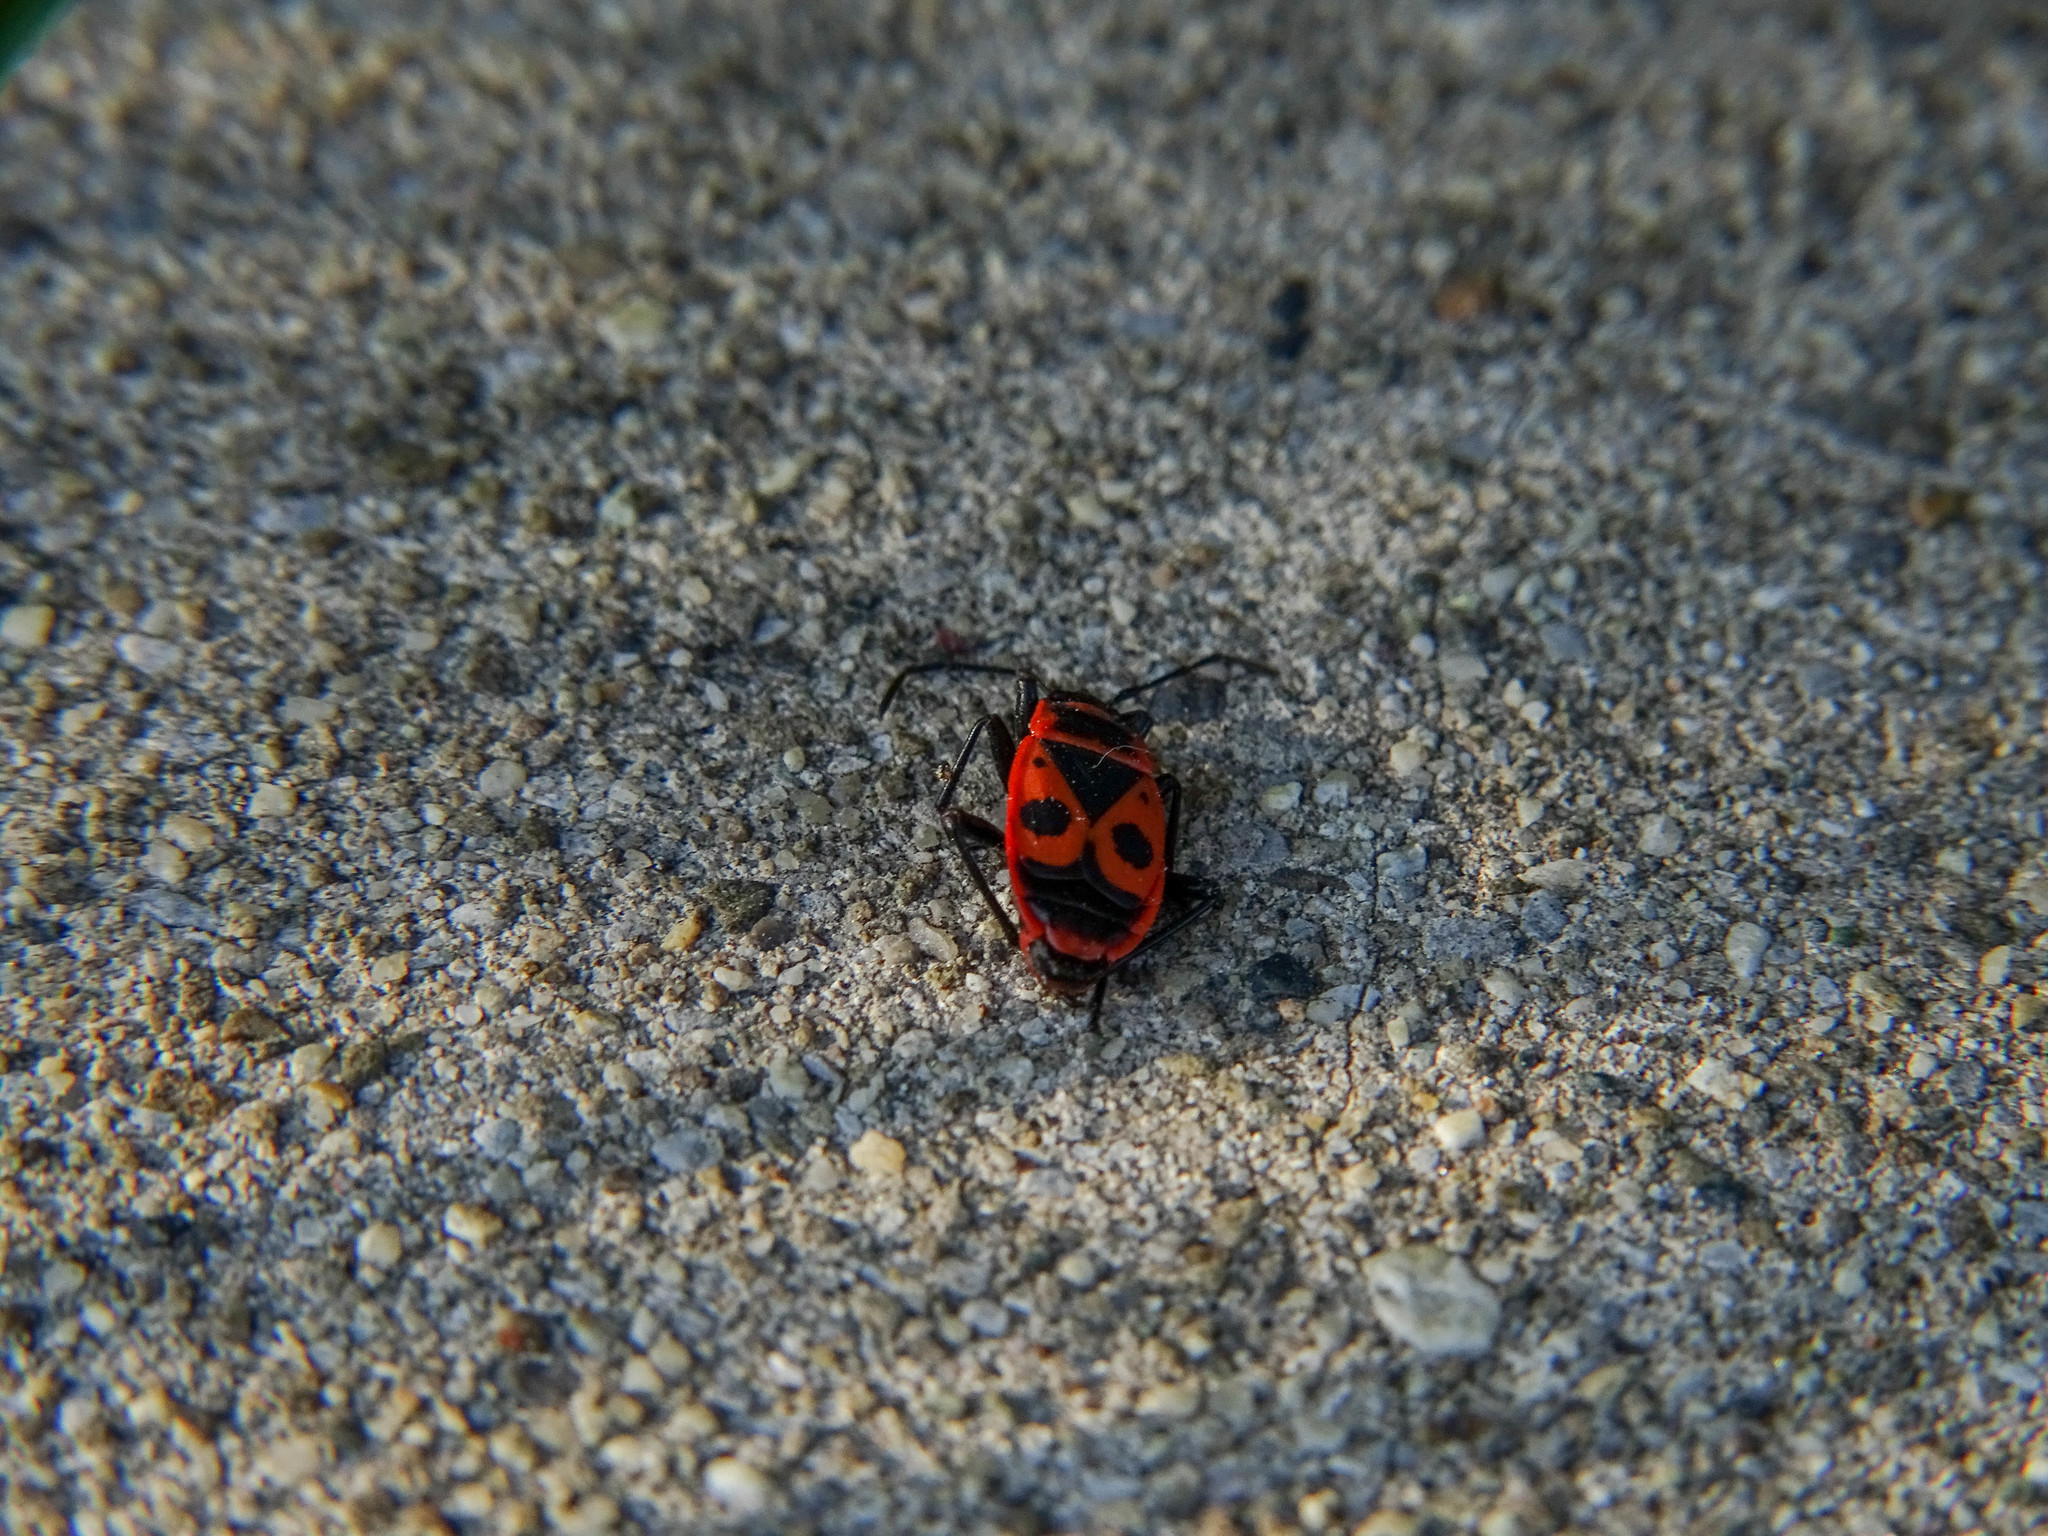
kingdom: Animalia
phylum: Arthropoda
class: Insecta
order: Hemiptera
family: Pyrrhocoridae
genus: Pyrrhocoris
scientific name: Pyrrhocoris apterus
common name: Firebug
